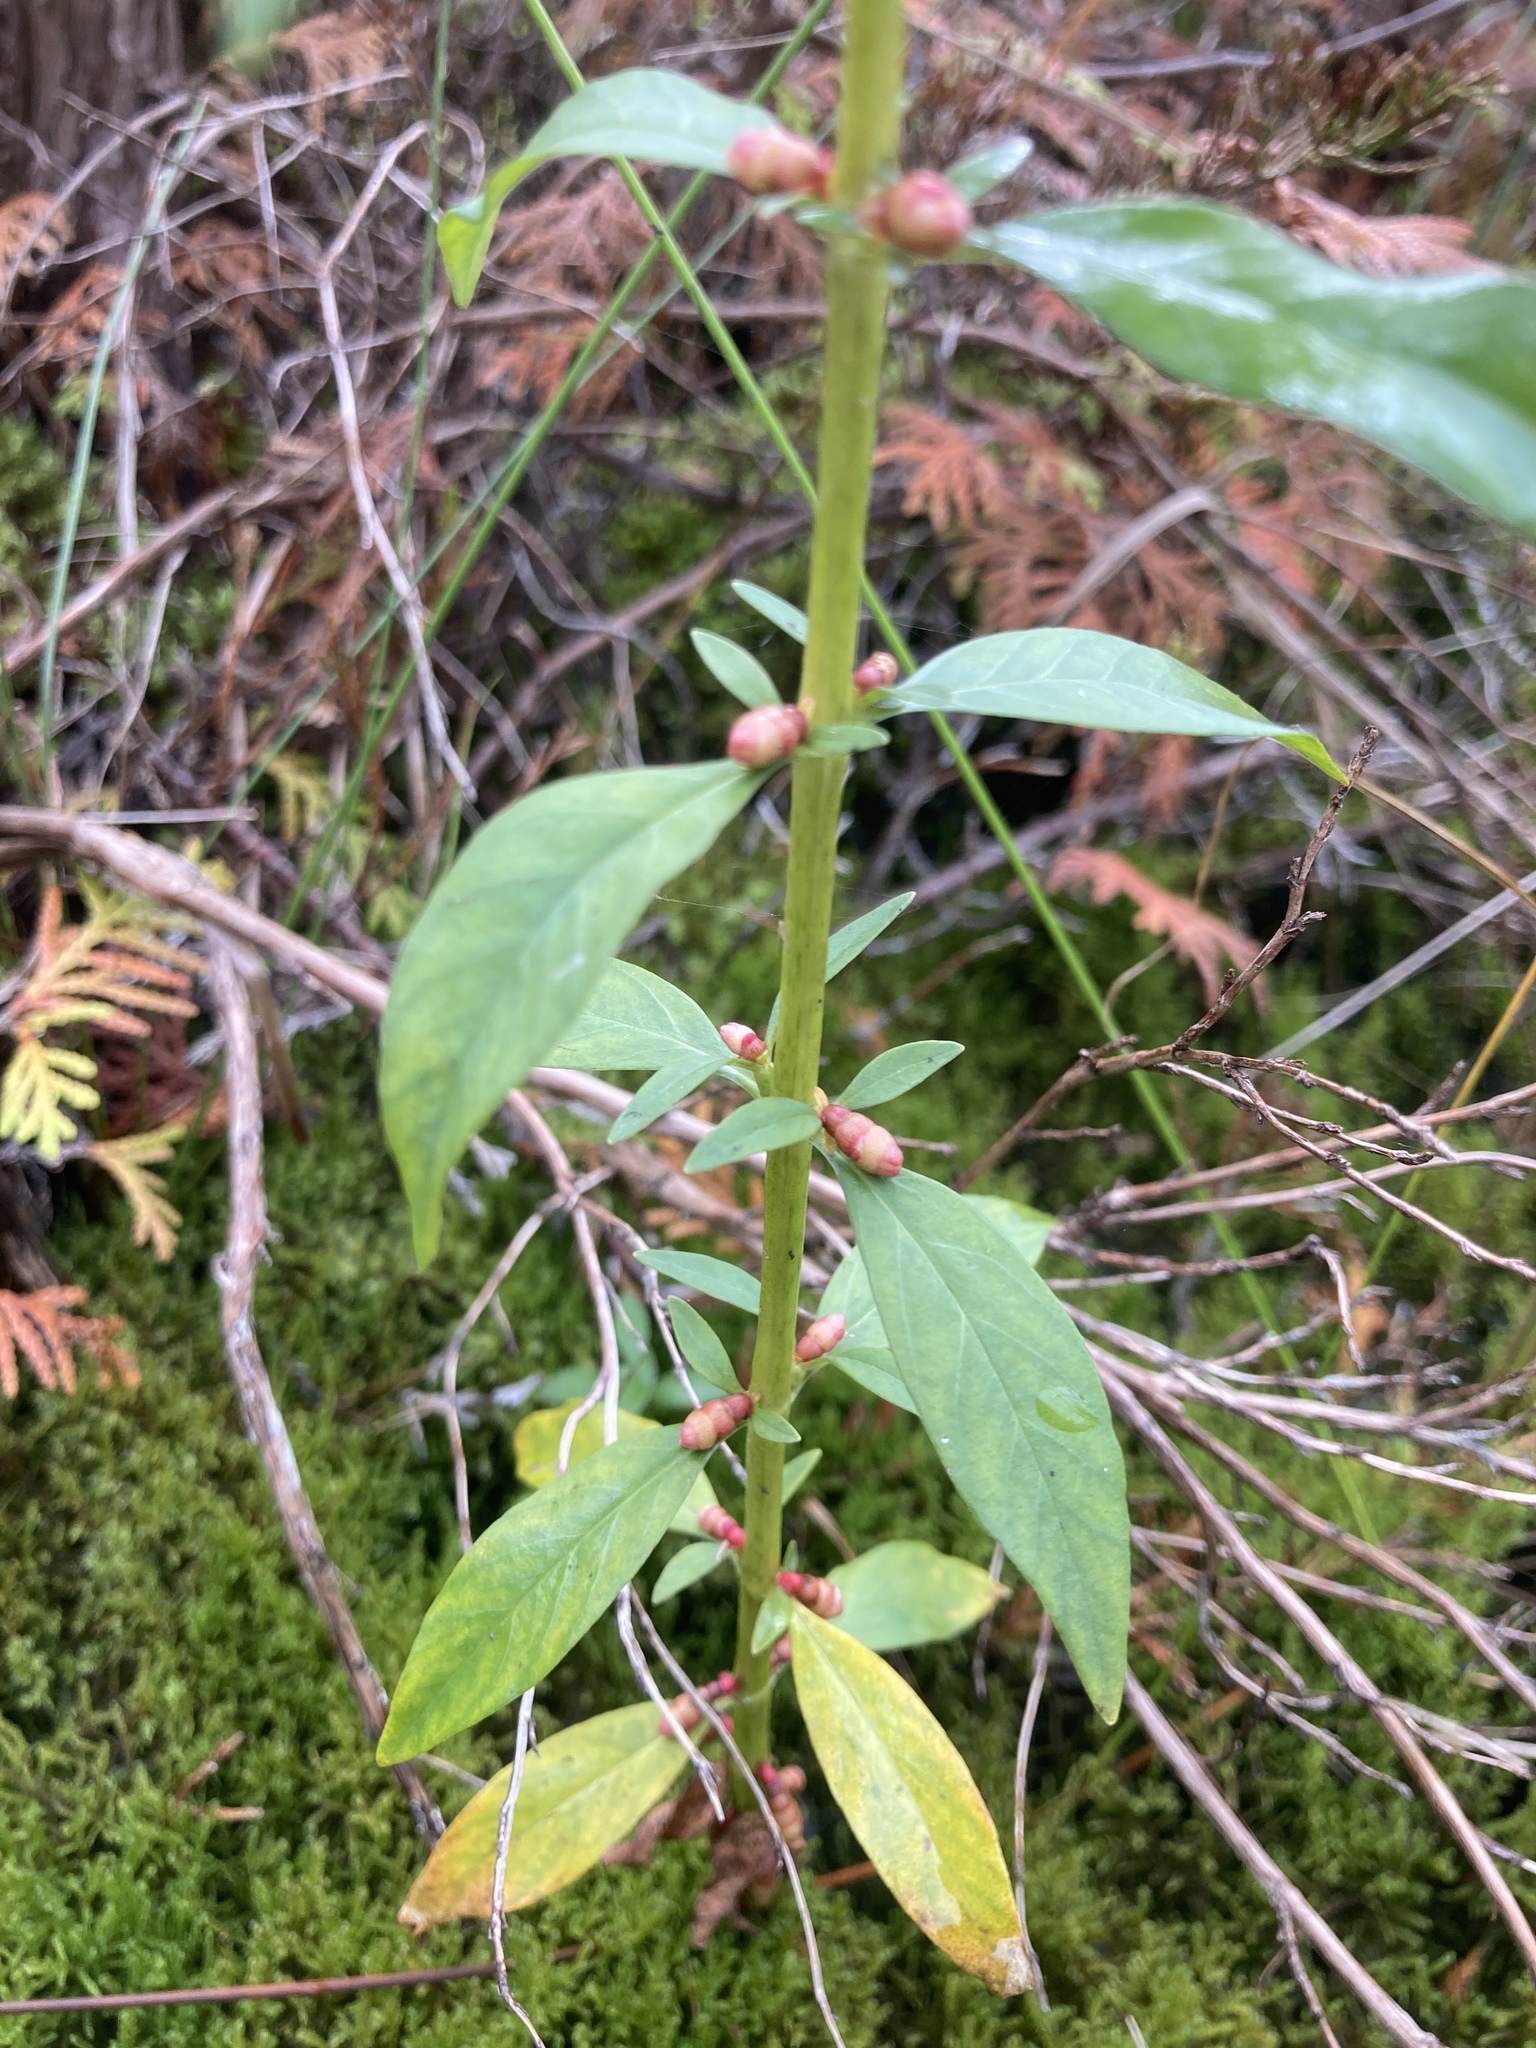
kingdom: Plantae
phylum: Tracheophyta
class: Magnoliopsida
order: Ericales
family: Primulaceae
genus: Lysimachia
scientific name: Lysimachia terrestris
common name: Lake loosestrife
